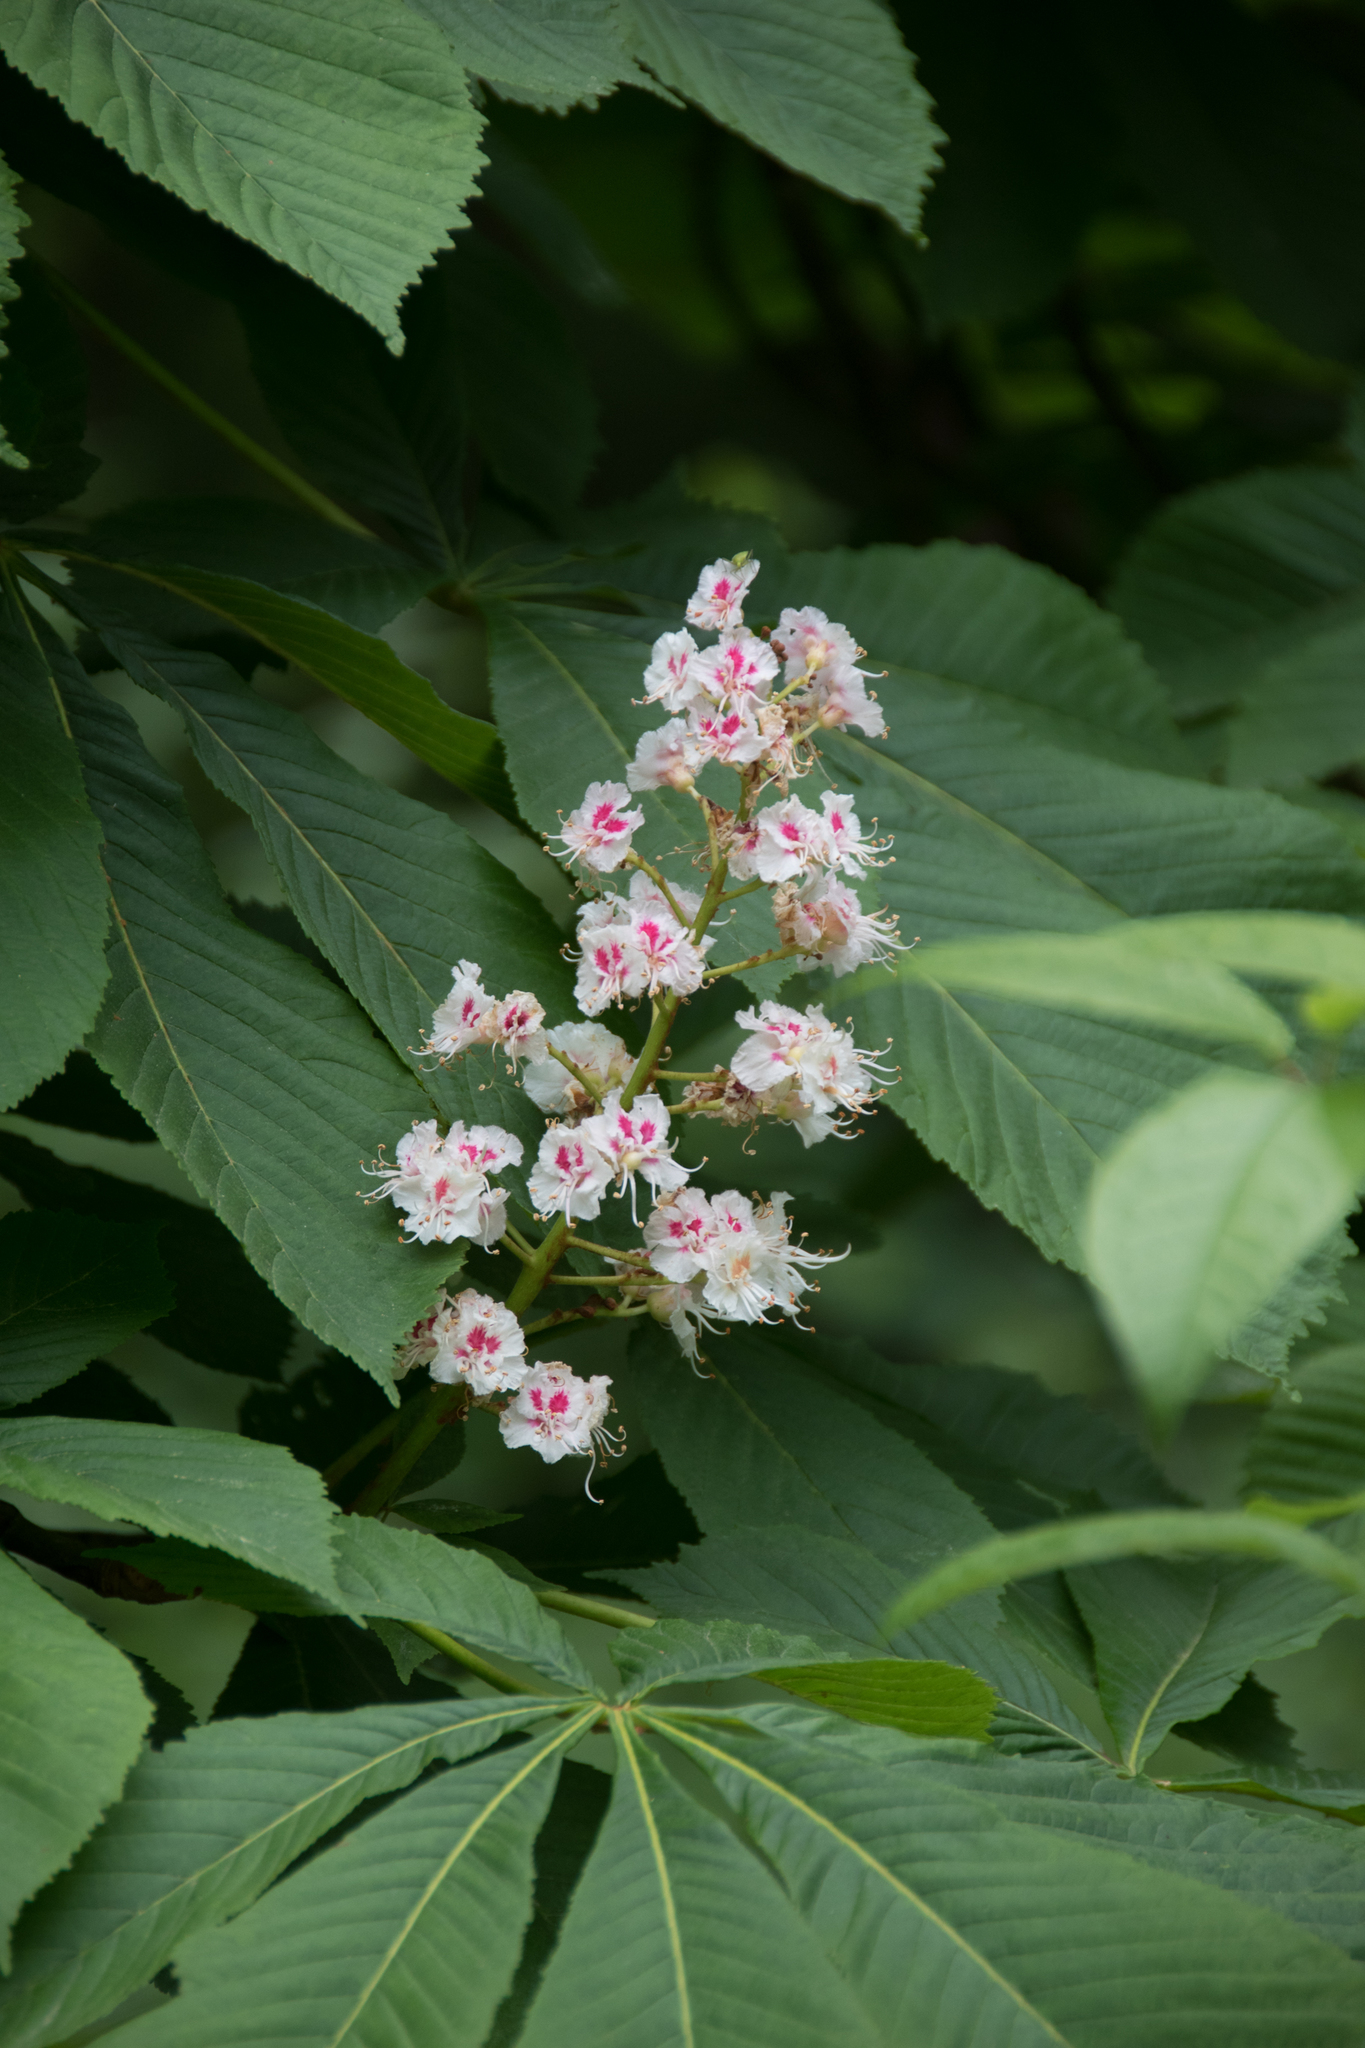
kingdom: Plantae
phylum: Tracheophyta
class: Magnoliopsida
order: Sapindales
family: Sapindaceae
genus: Aesculus
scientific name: Aesculus hippocastanum
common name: Horse-chestnut
